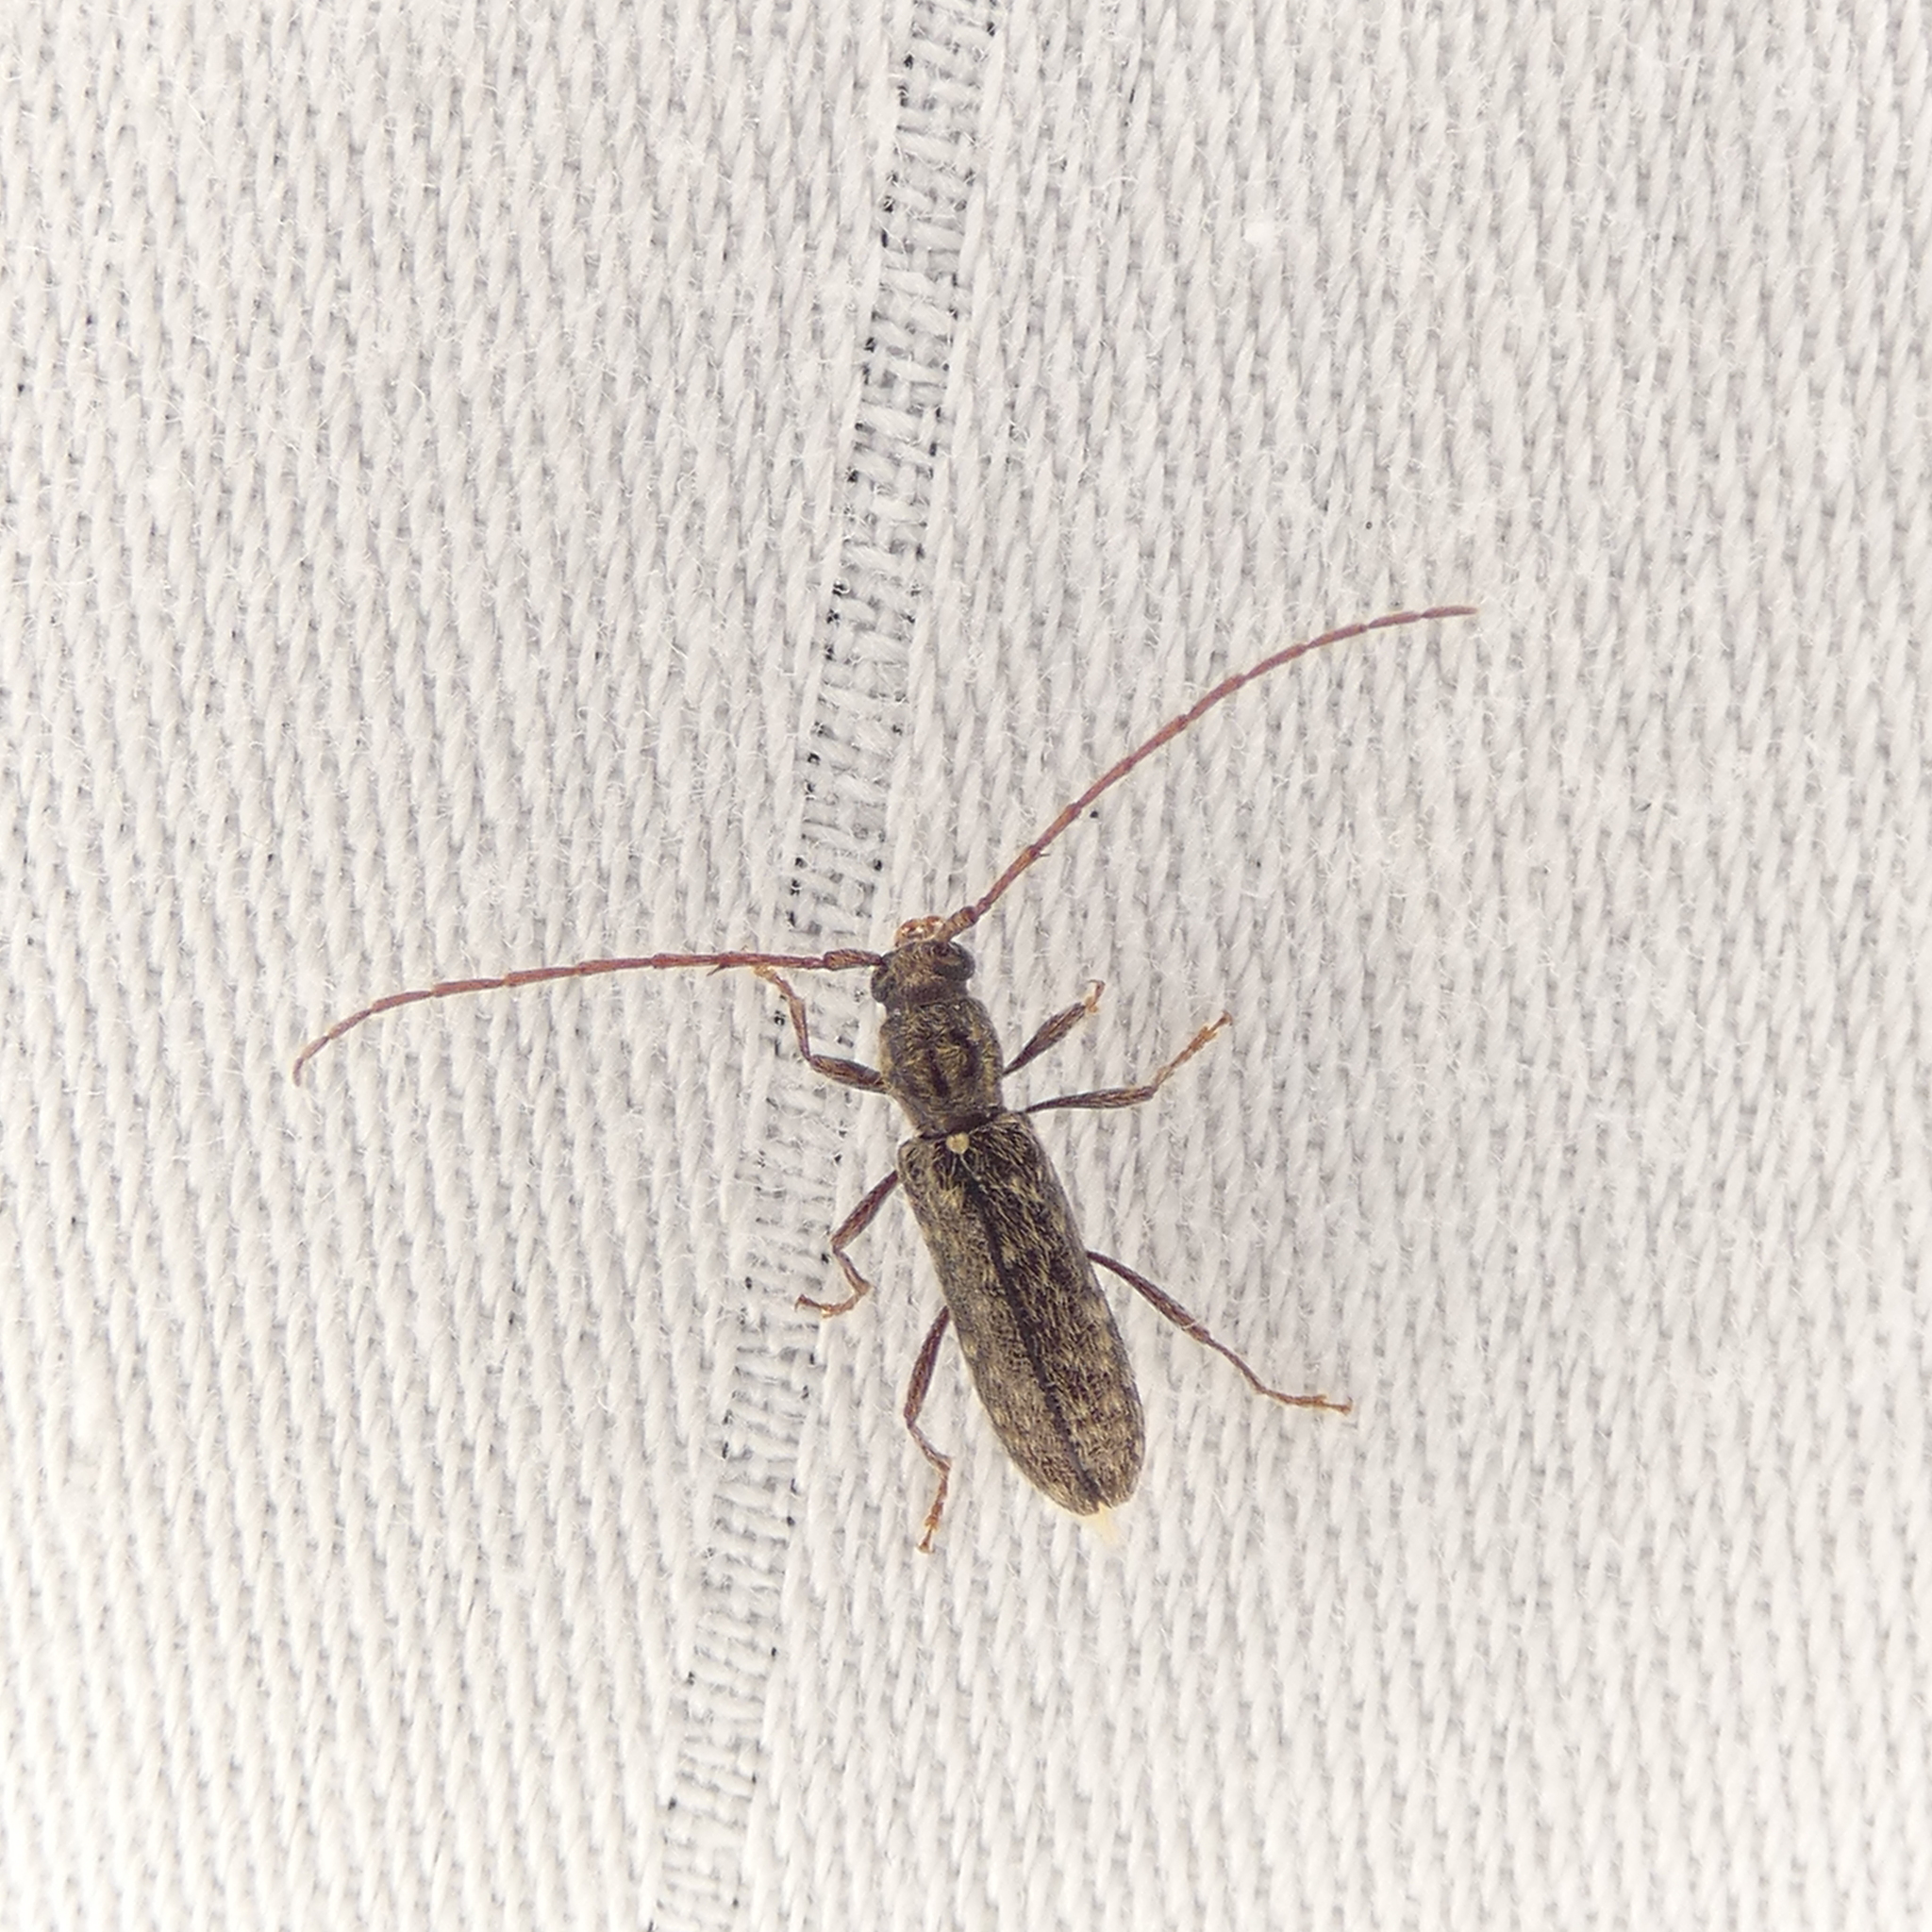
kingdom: Animalia
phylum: Arthropoda
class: Insecta
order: Coleoptera
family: Cerambycidae
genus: Anelaphus
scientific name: Anelaphus pumilus
